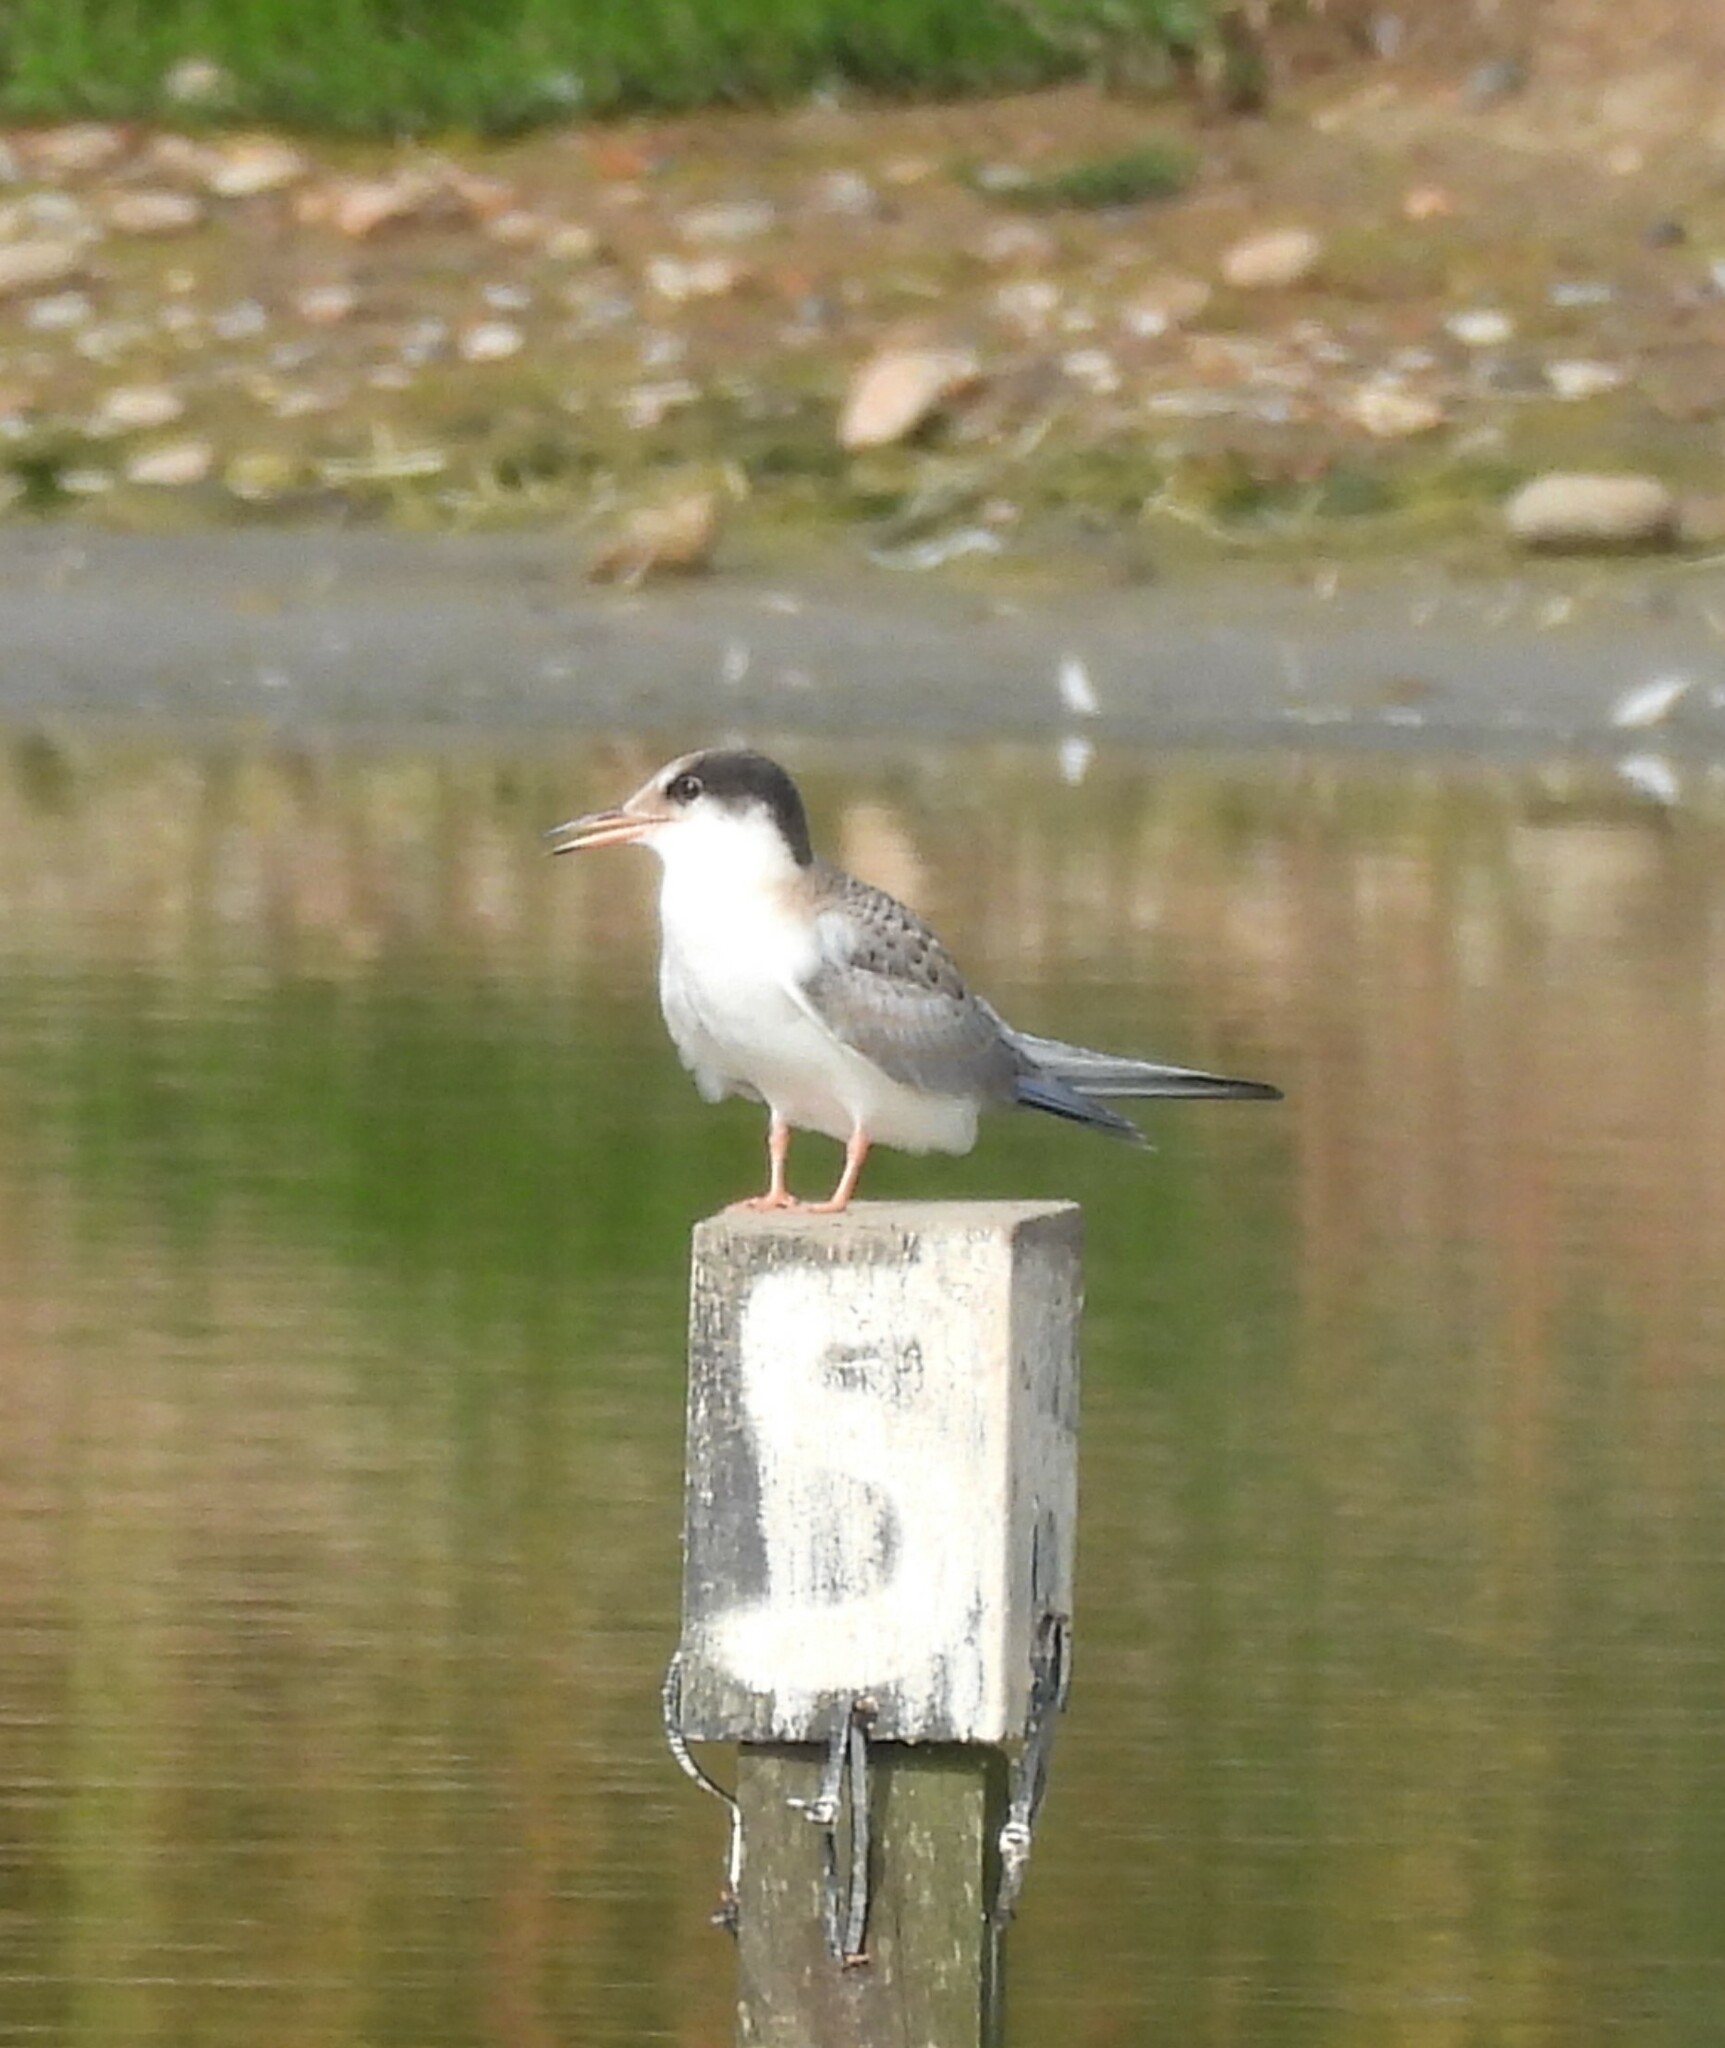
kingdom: Animalia
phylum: Chordata
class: Aves
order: Charadriiformes
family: Laridae
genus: Sterna
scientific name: Sterna hirundo
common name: Common tern
